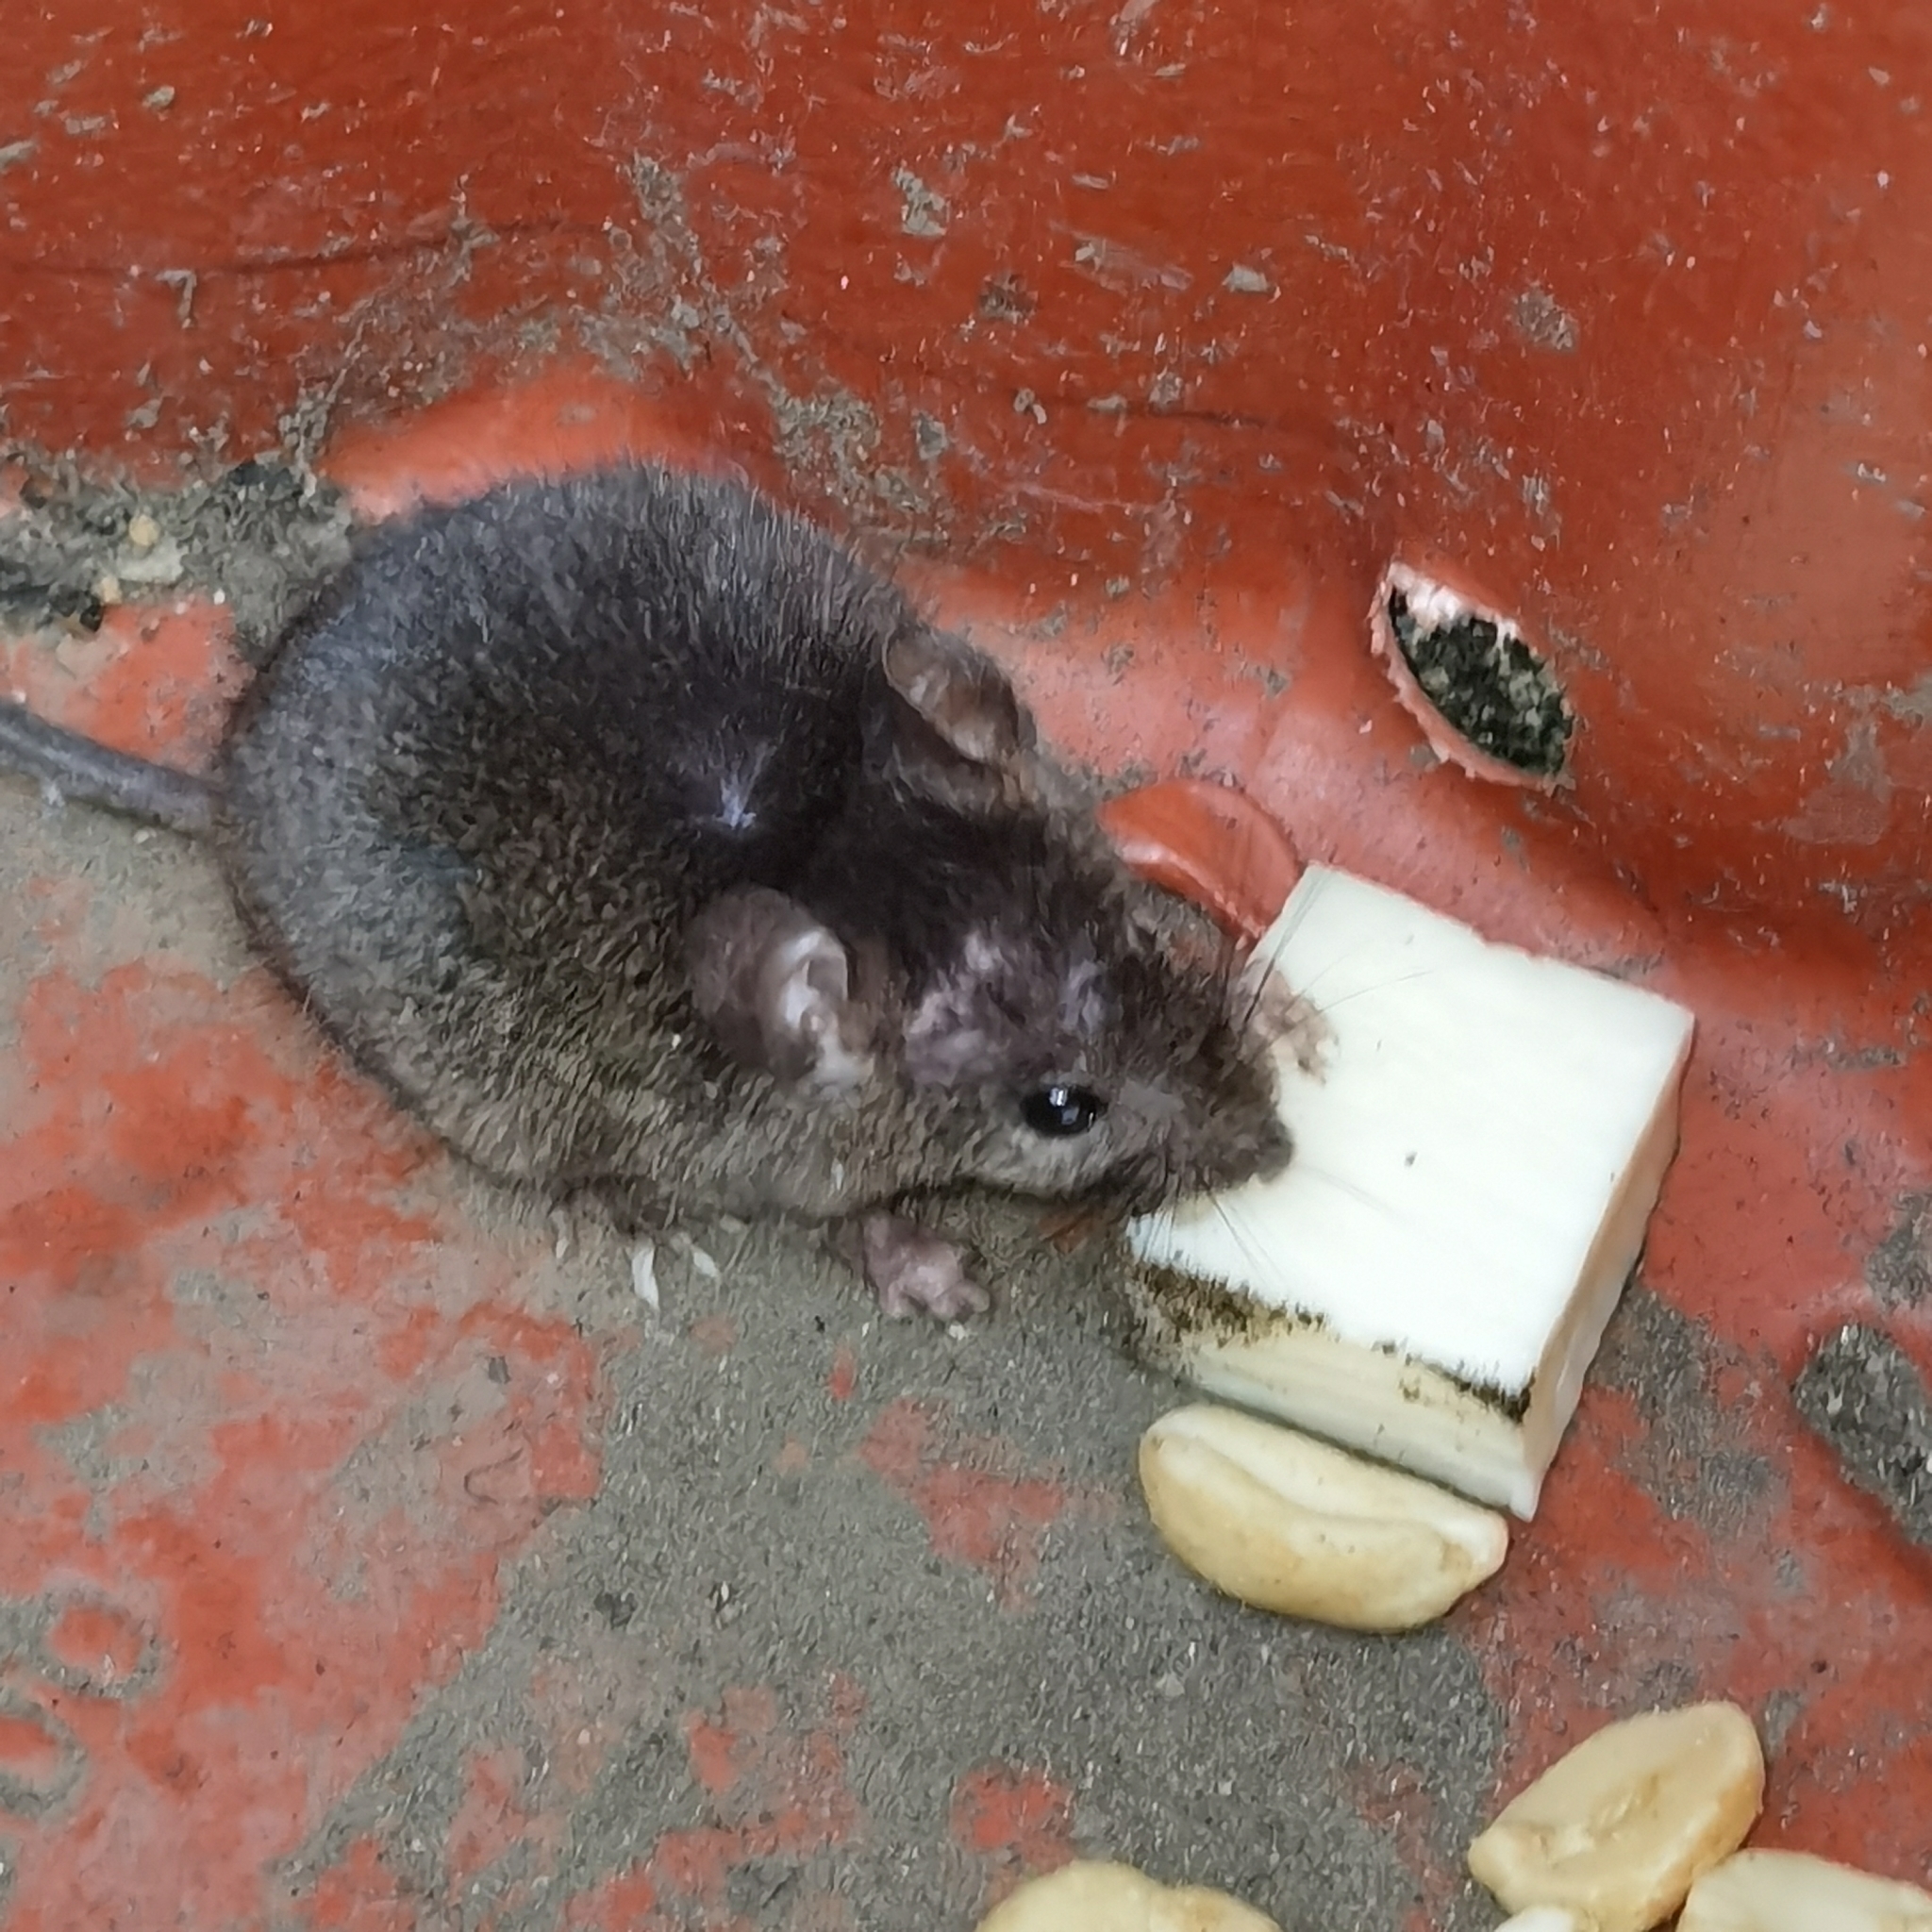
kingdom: Animalia
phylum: Chordata
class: Mammalia
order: Rodentia
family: Muridae
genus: Mus
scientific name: Mus musculus
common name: House mouse
